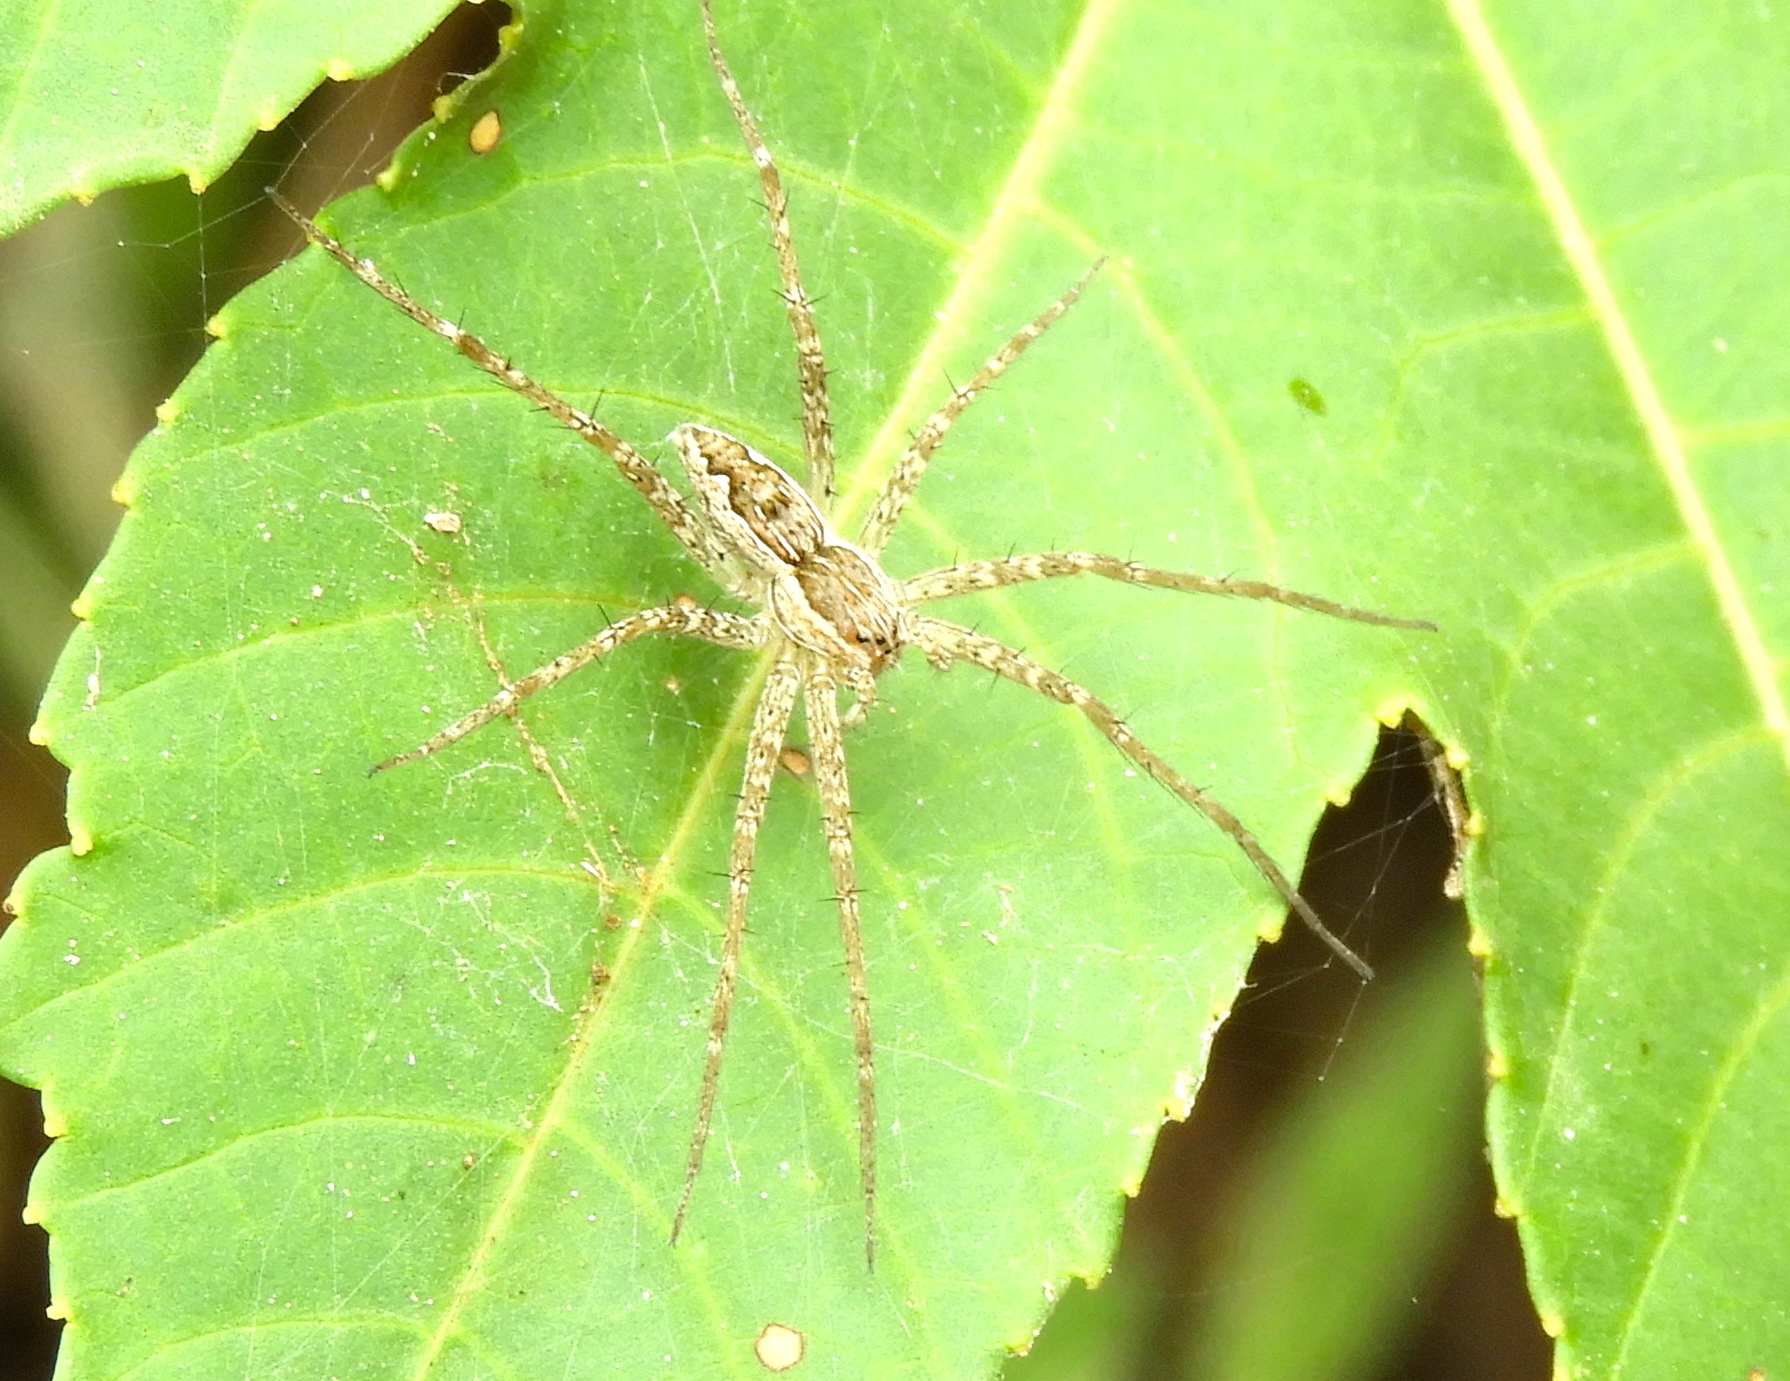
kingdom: Animalia
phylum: Arthropoda
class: Arachnida
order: Araneae
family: Pisauridae
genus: Tinus
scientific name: Tinus
